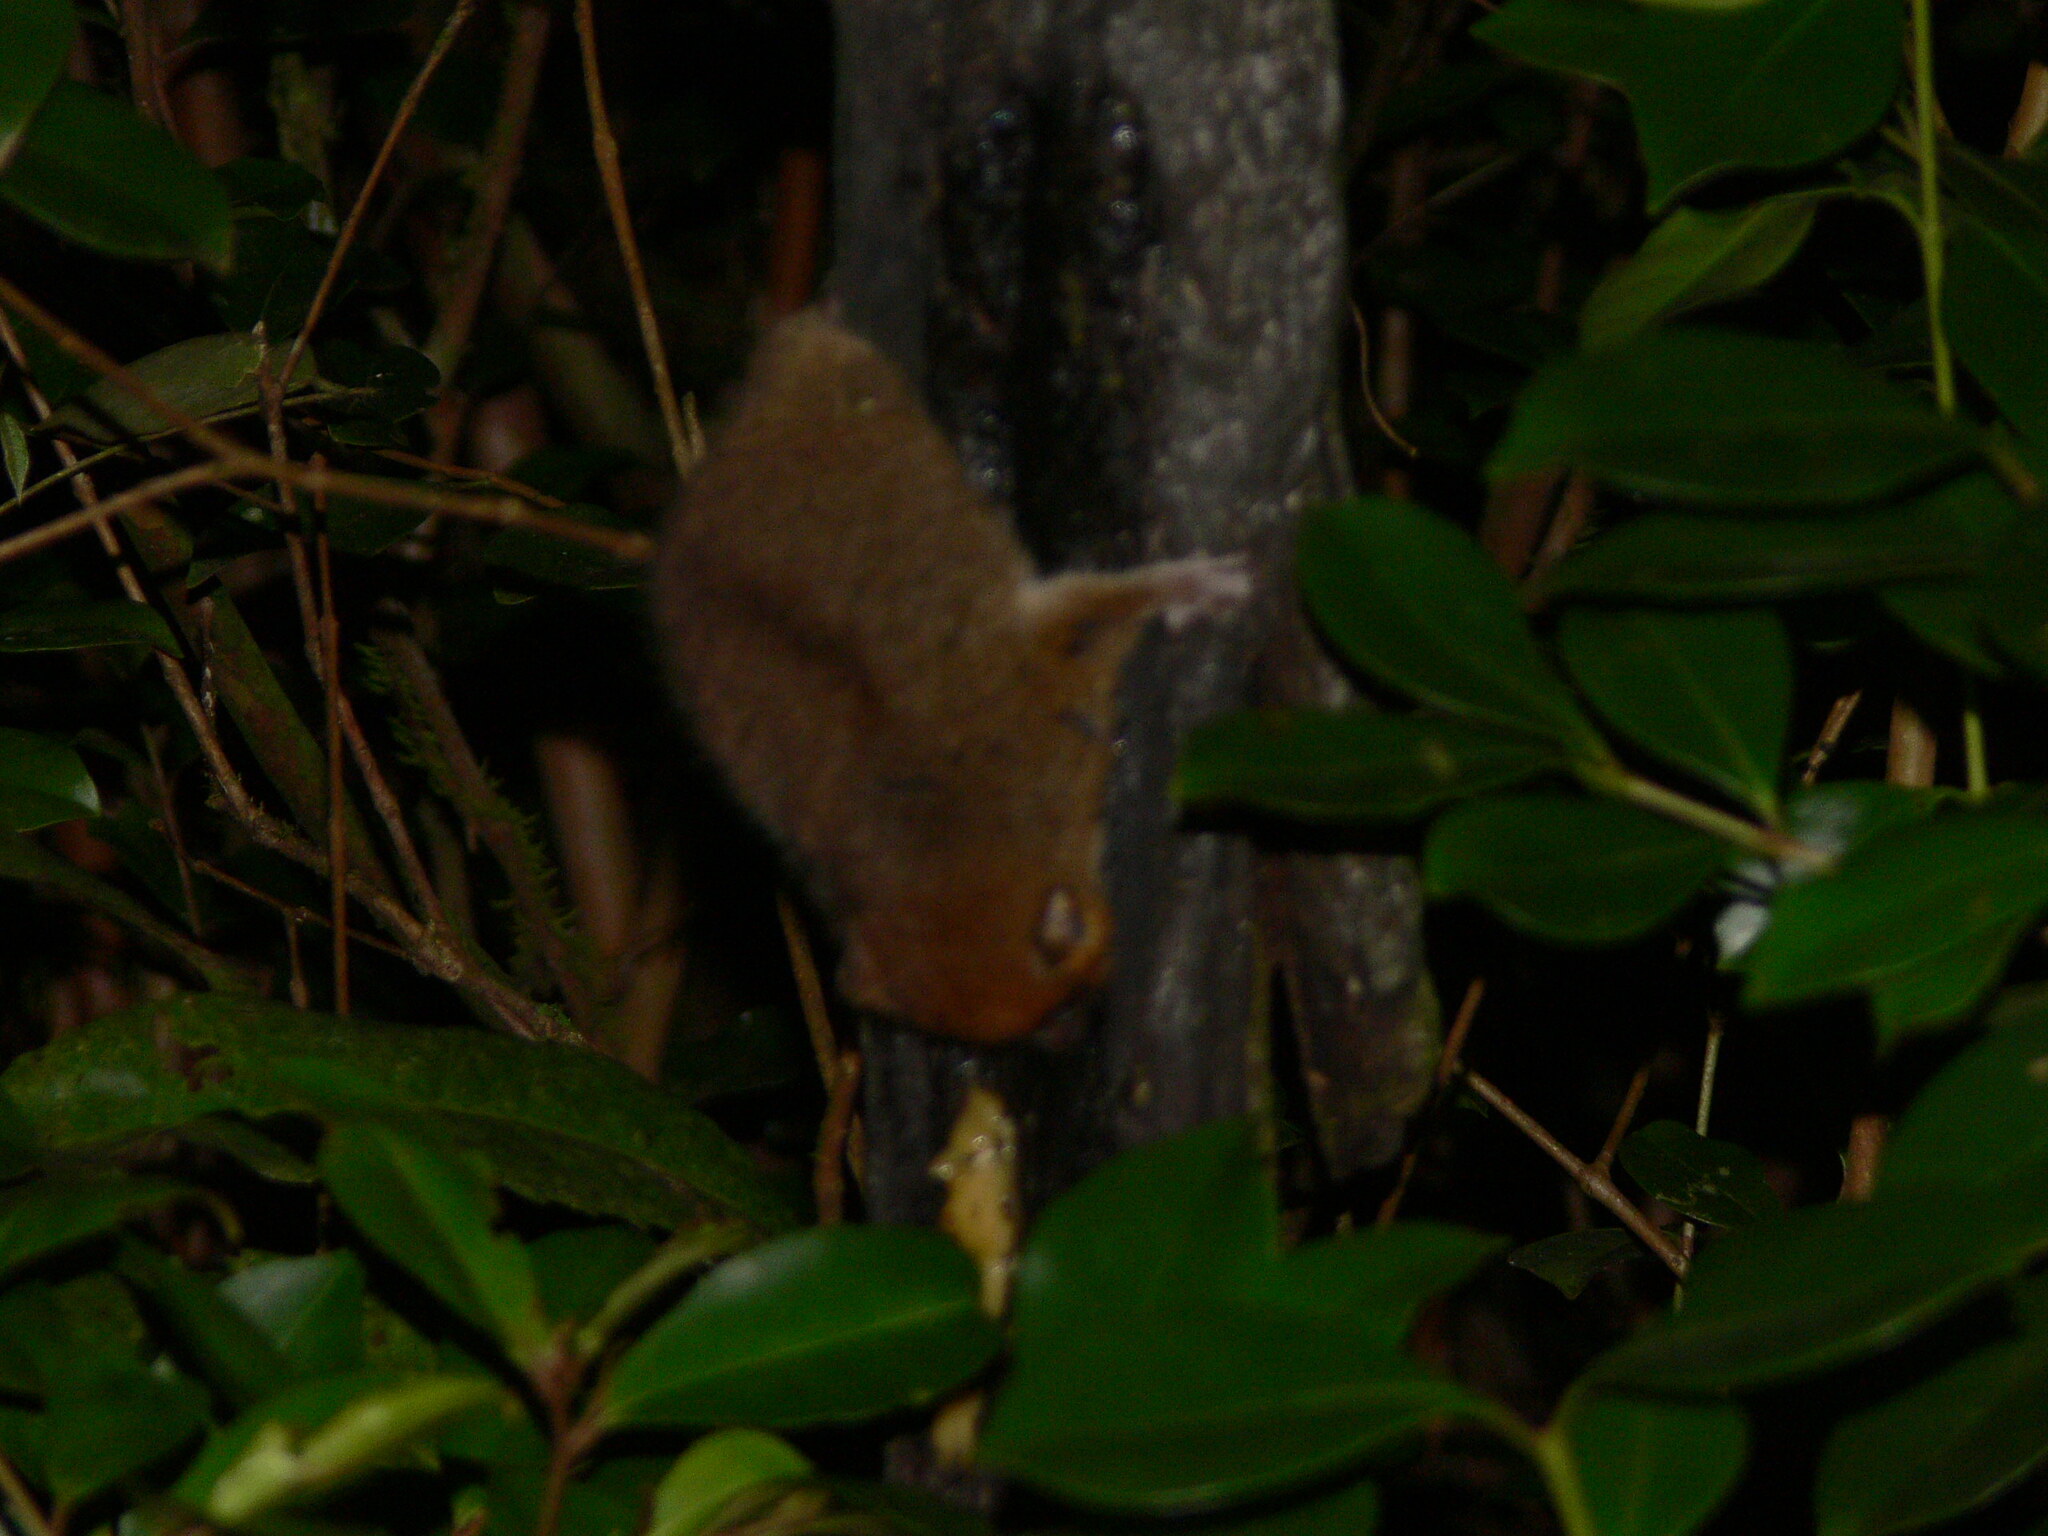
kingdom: Animalia
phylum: Chordata
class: Mammalia
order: Primates
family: Cheirogaleidae
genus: Microcebus
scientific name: Microcebus rufus
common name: Brown mouse lemur
